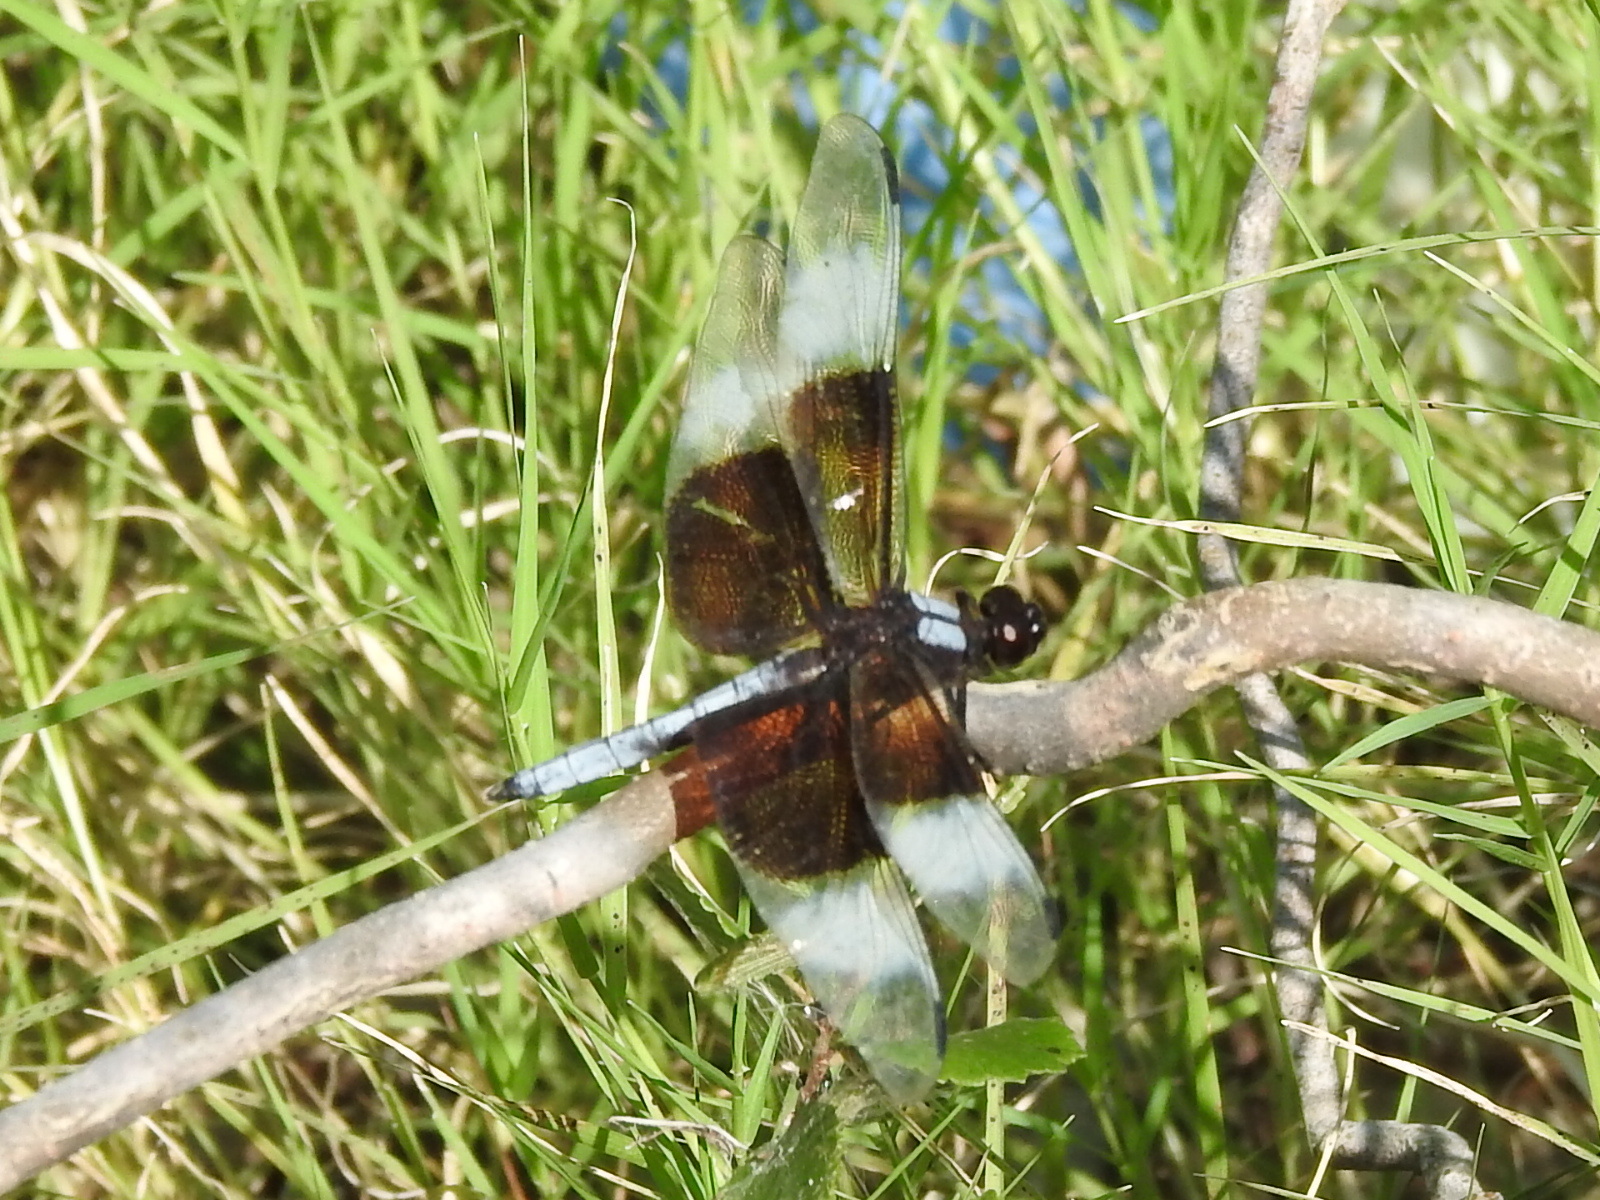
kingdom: Animalia
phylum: Arthropoda
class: Insecta
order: Odonata
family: Libellulidae
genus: Libellula
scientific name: Libellula luctuosa
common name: Widow skimmer
